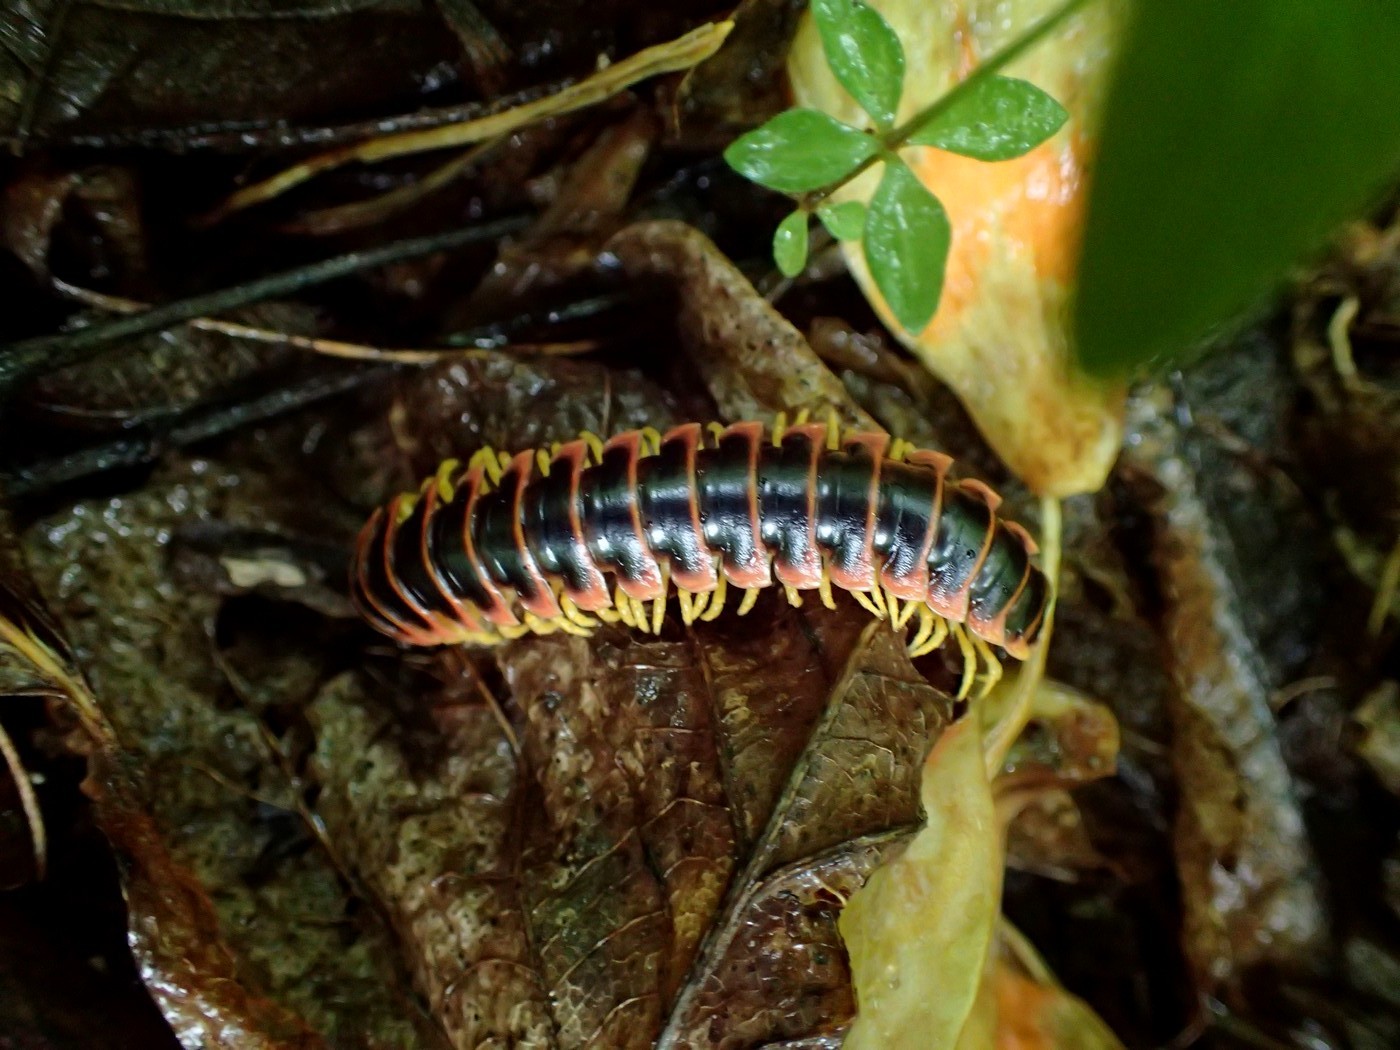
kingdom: Animalia
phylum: Arthropoda
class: Diplopoda
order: Polydesmida
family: Xystodesmidae
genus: Apheloria
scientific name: Apheloria virginiensis
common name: Black-and-gold flat millipede
